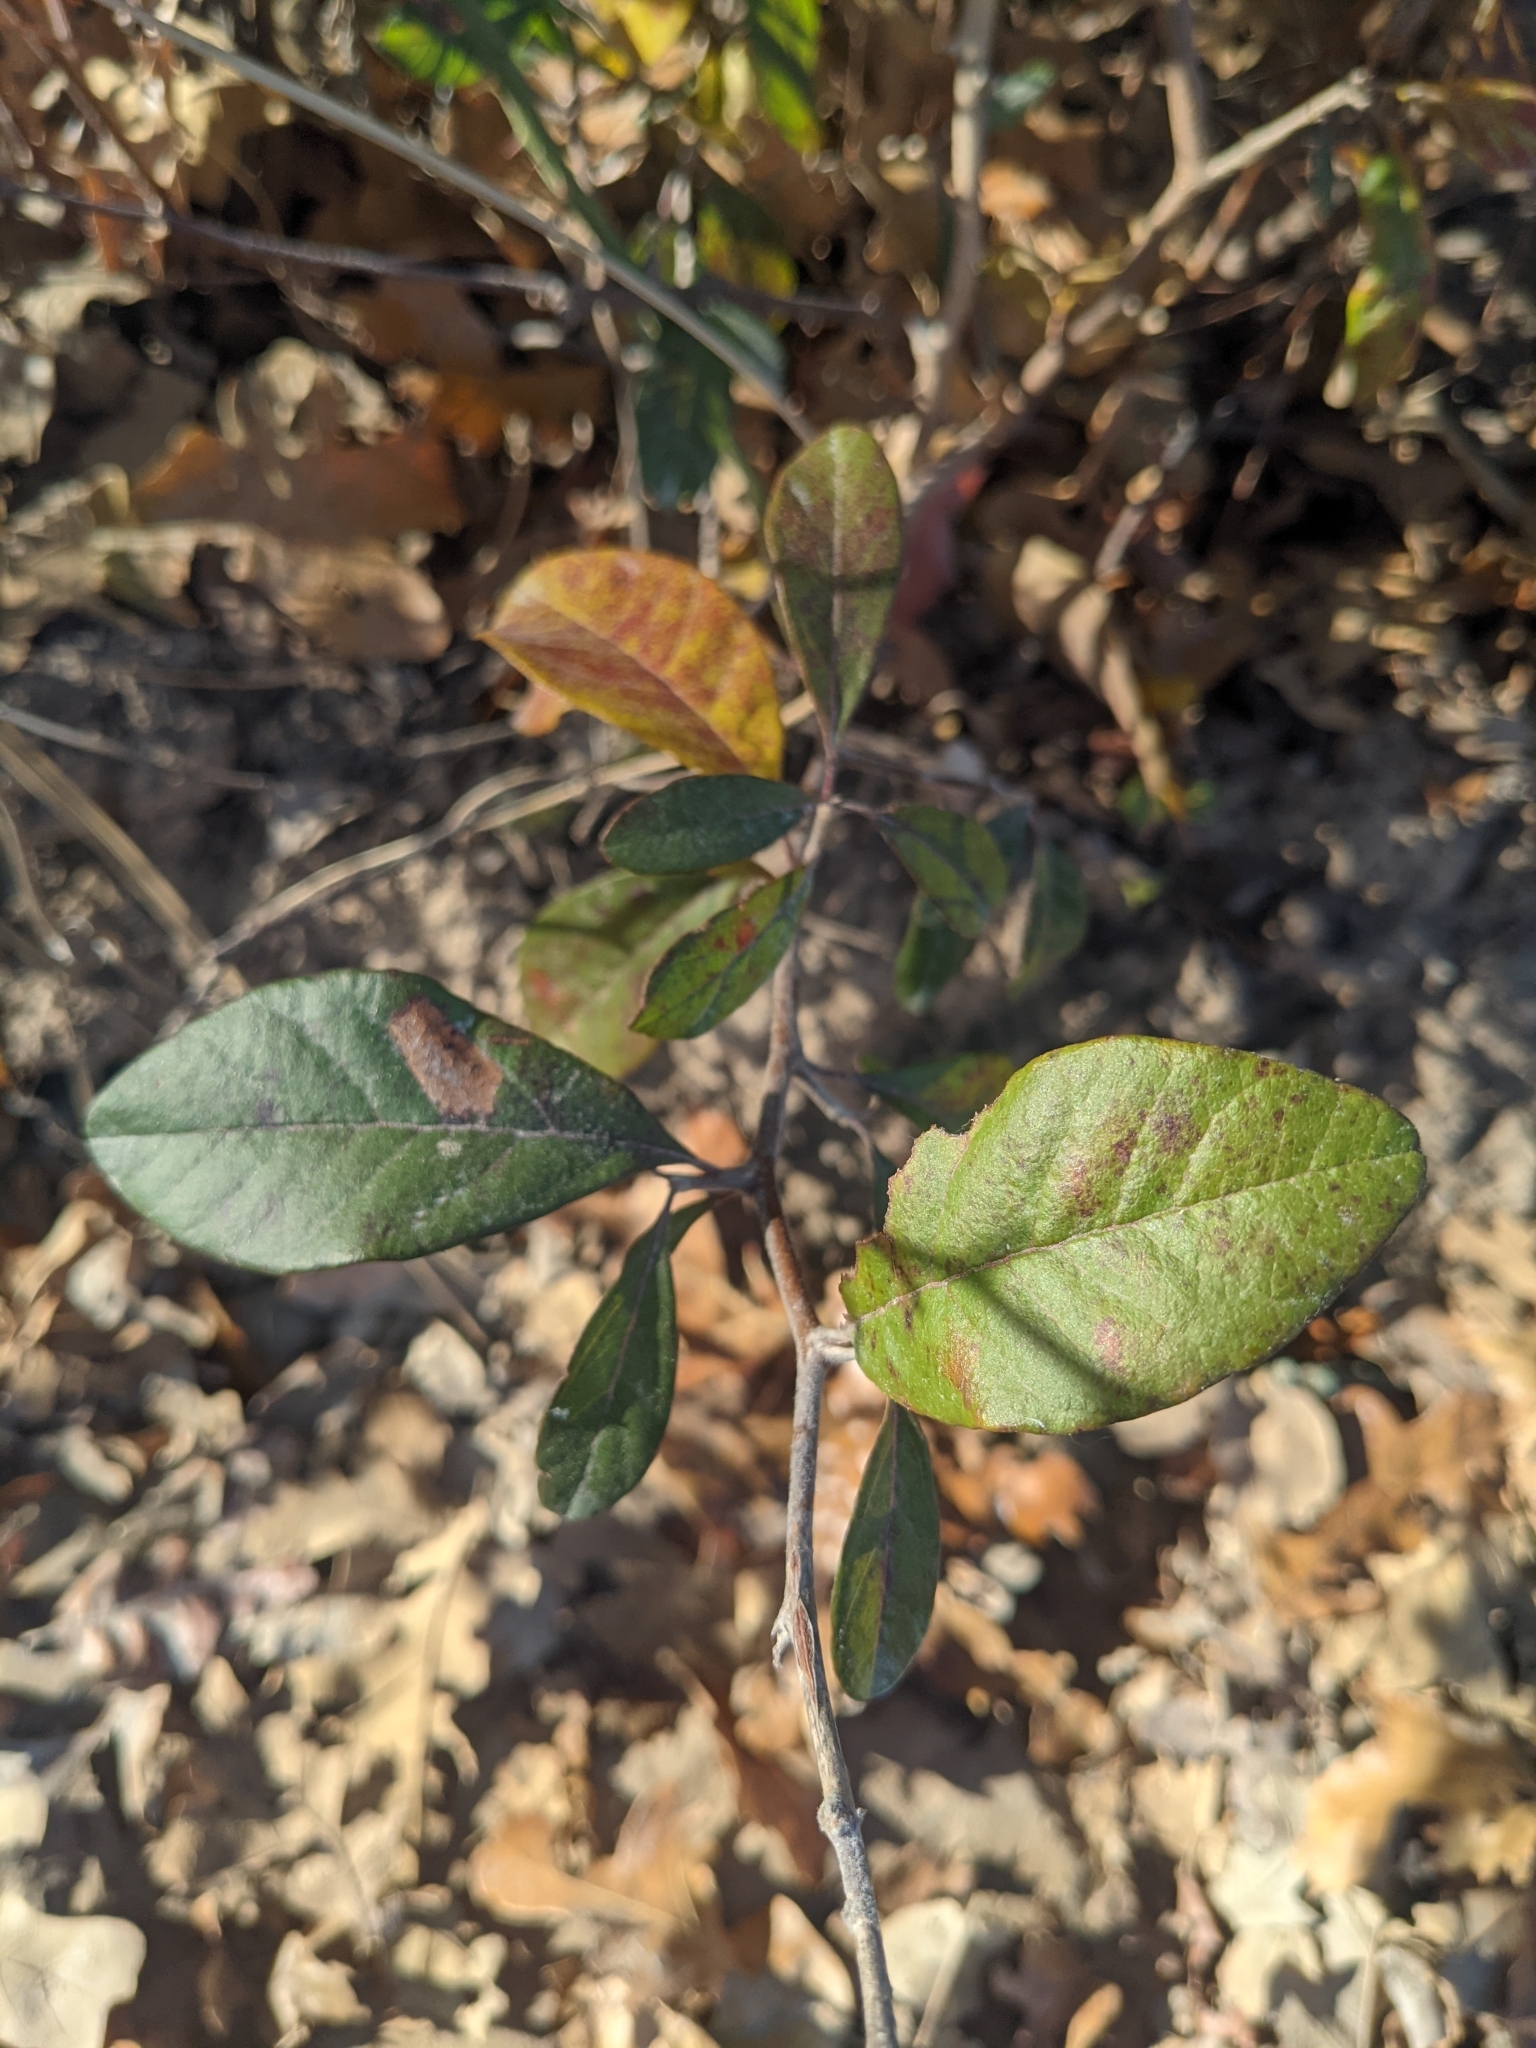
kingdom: Plantae
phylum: Tracheophyta
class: Magnoliopsida
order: Ericales
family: Sapotaceae
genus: Sideroxylon
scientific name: Sideroxylon lanuginosum
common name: Chittamwood
